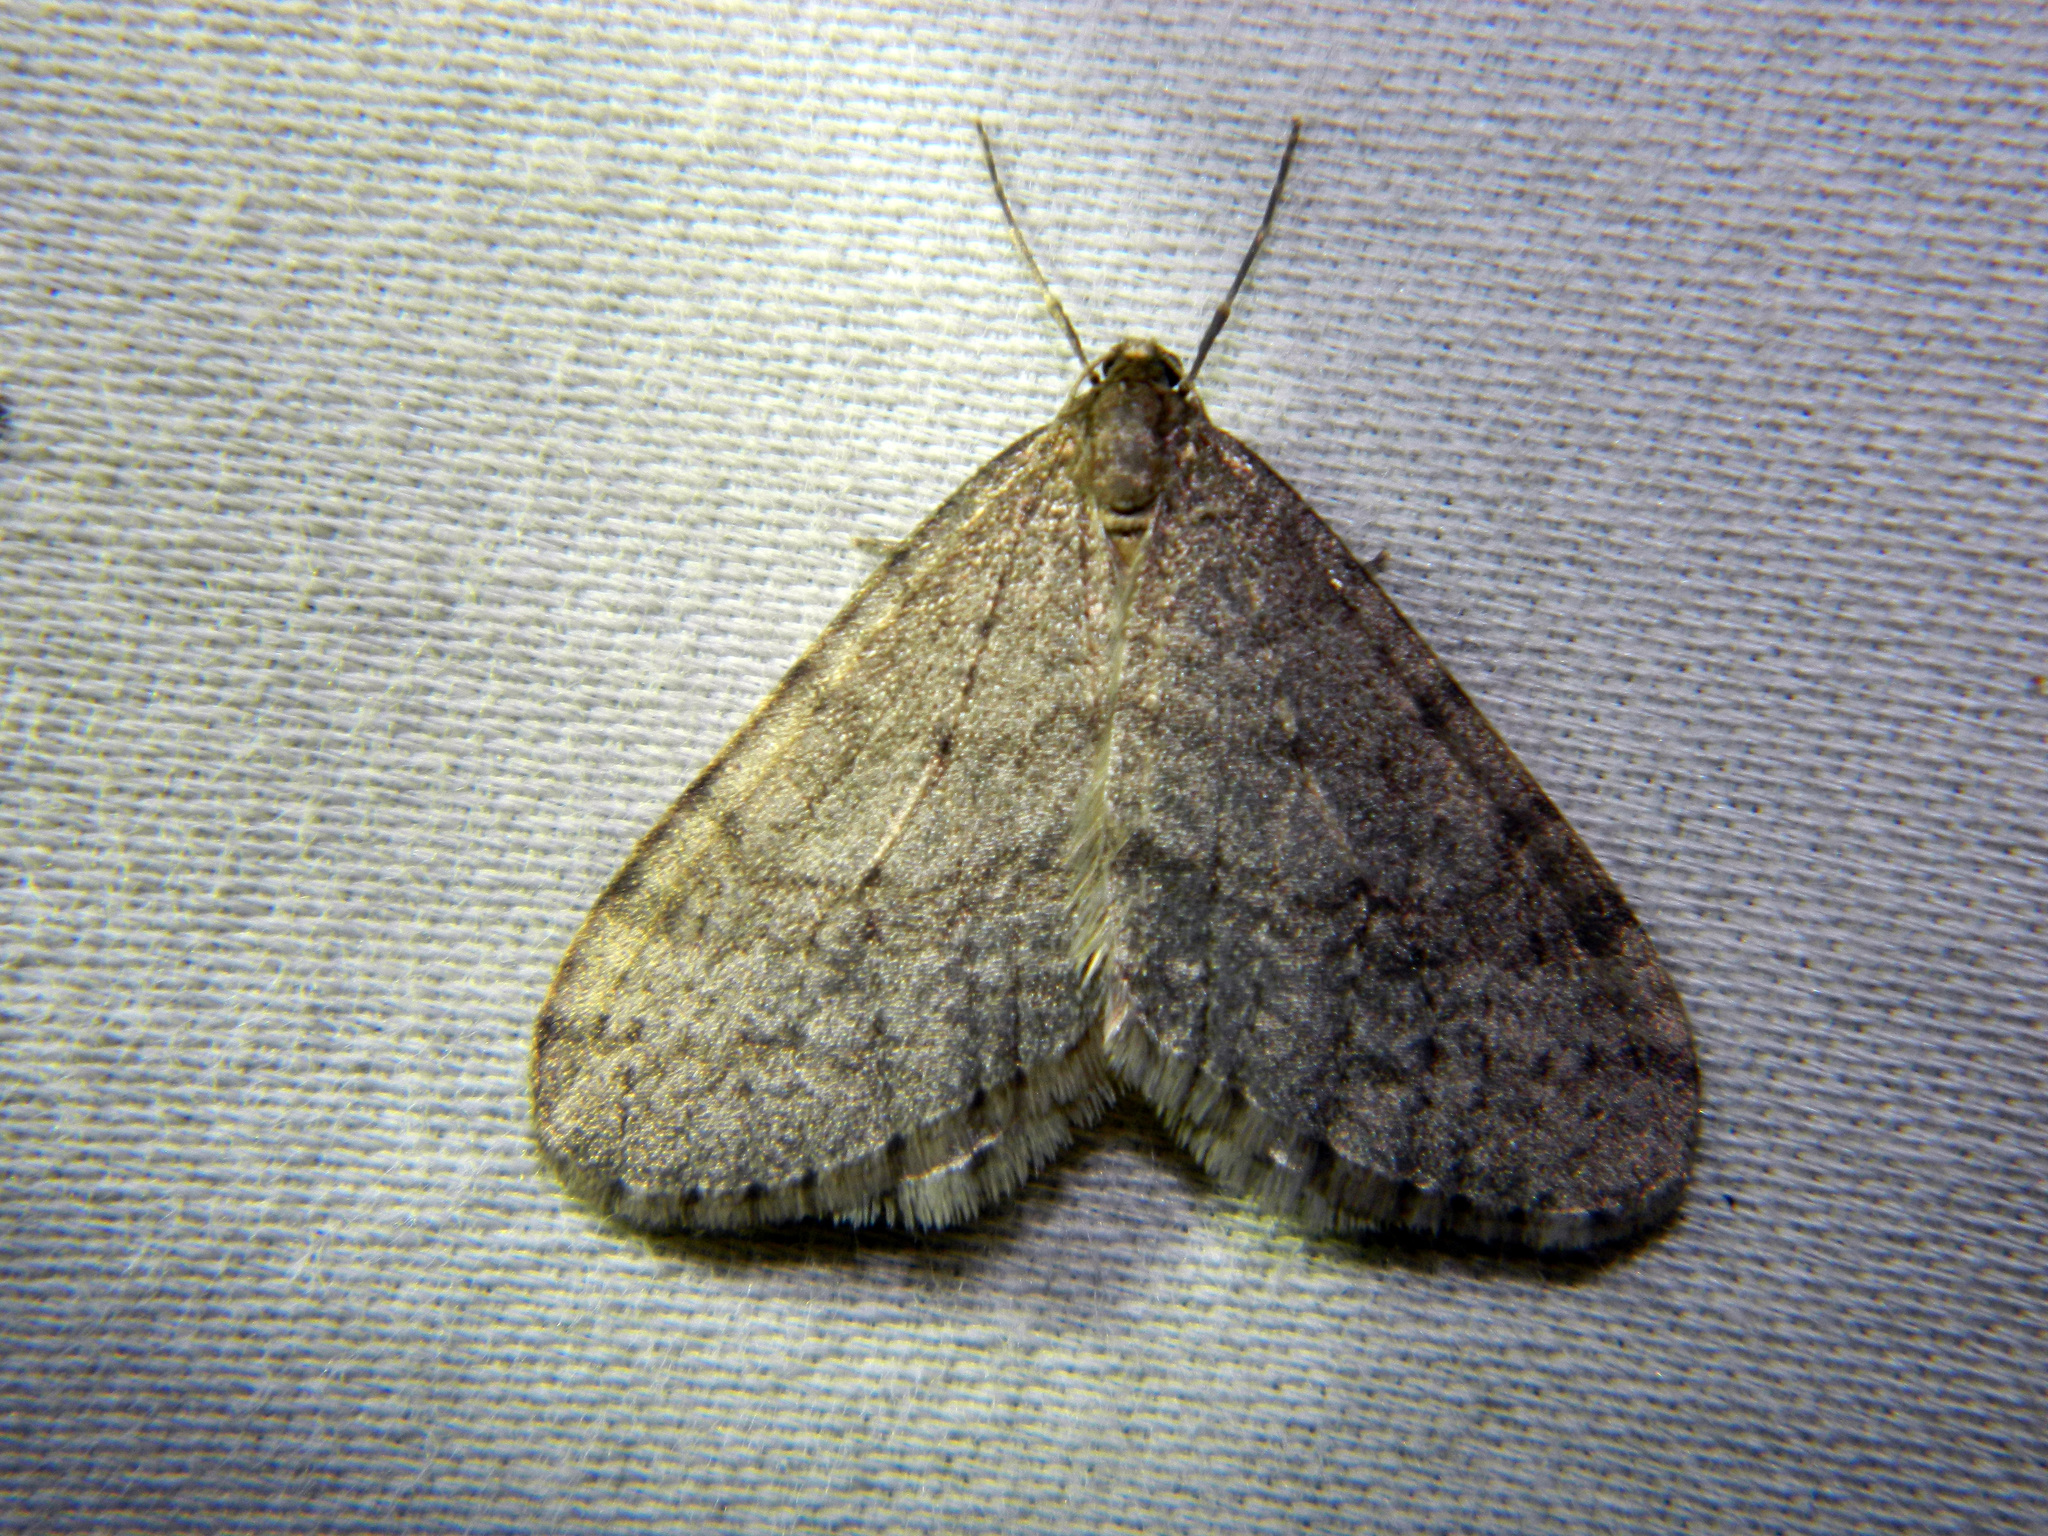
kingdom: Animalia
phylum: Arthropoda
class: Insecta
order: Lepidoptera
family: Geometridae
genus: Operophtera
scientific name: Operophtera bruceata
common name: Bruce spanworm
